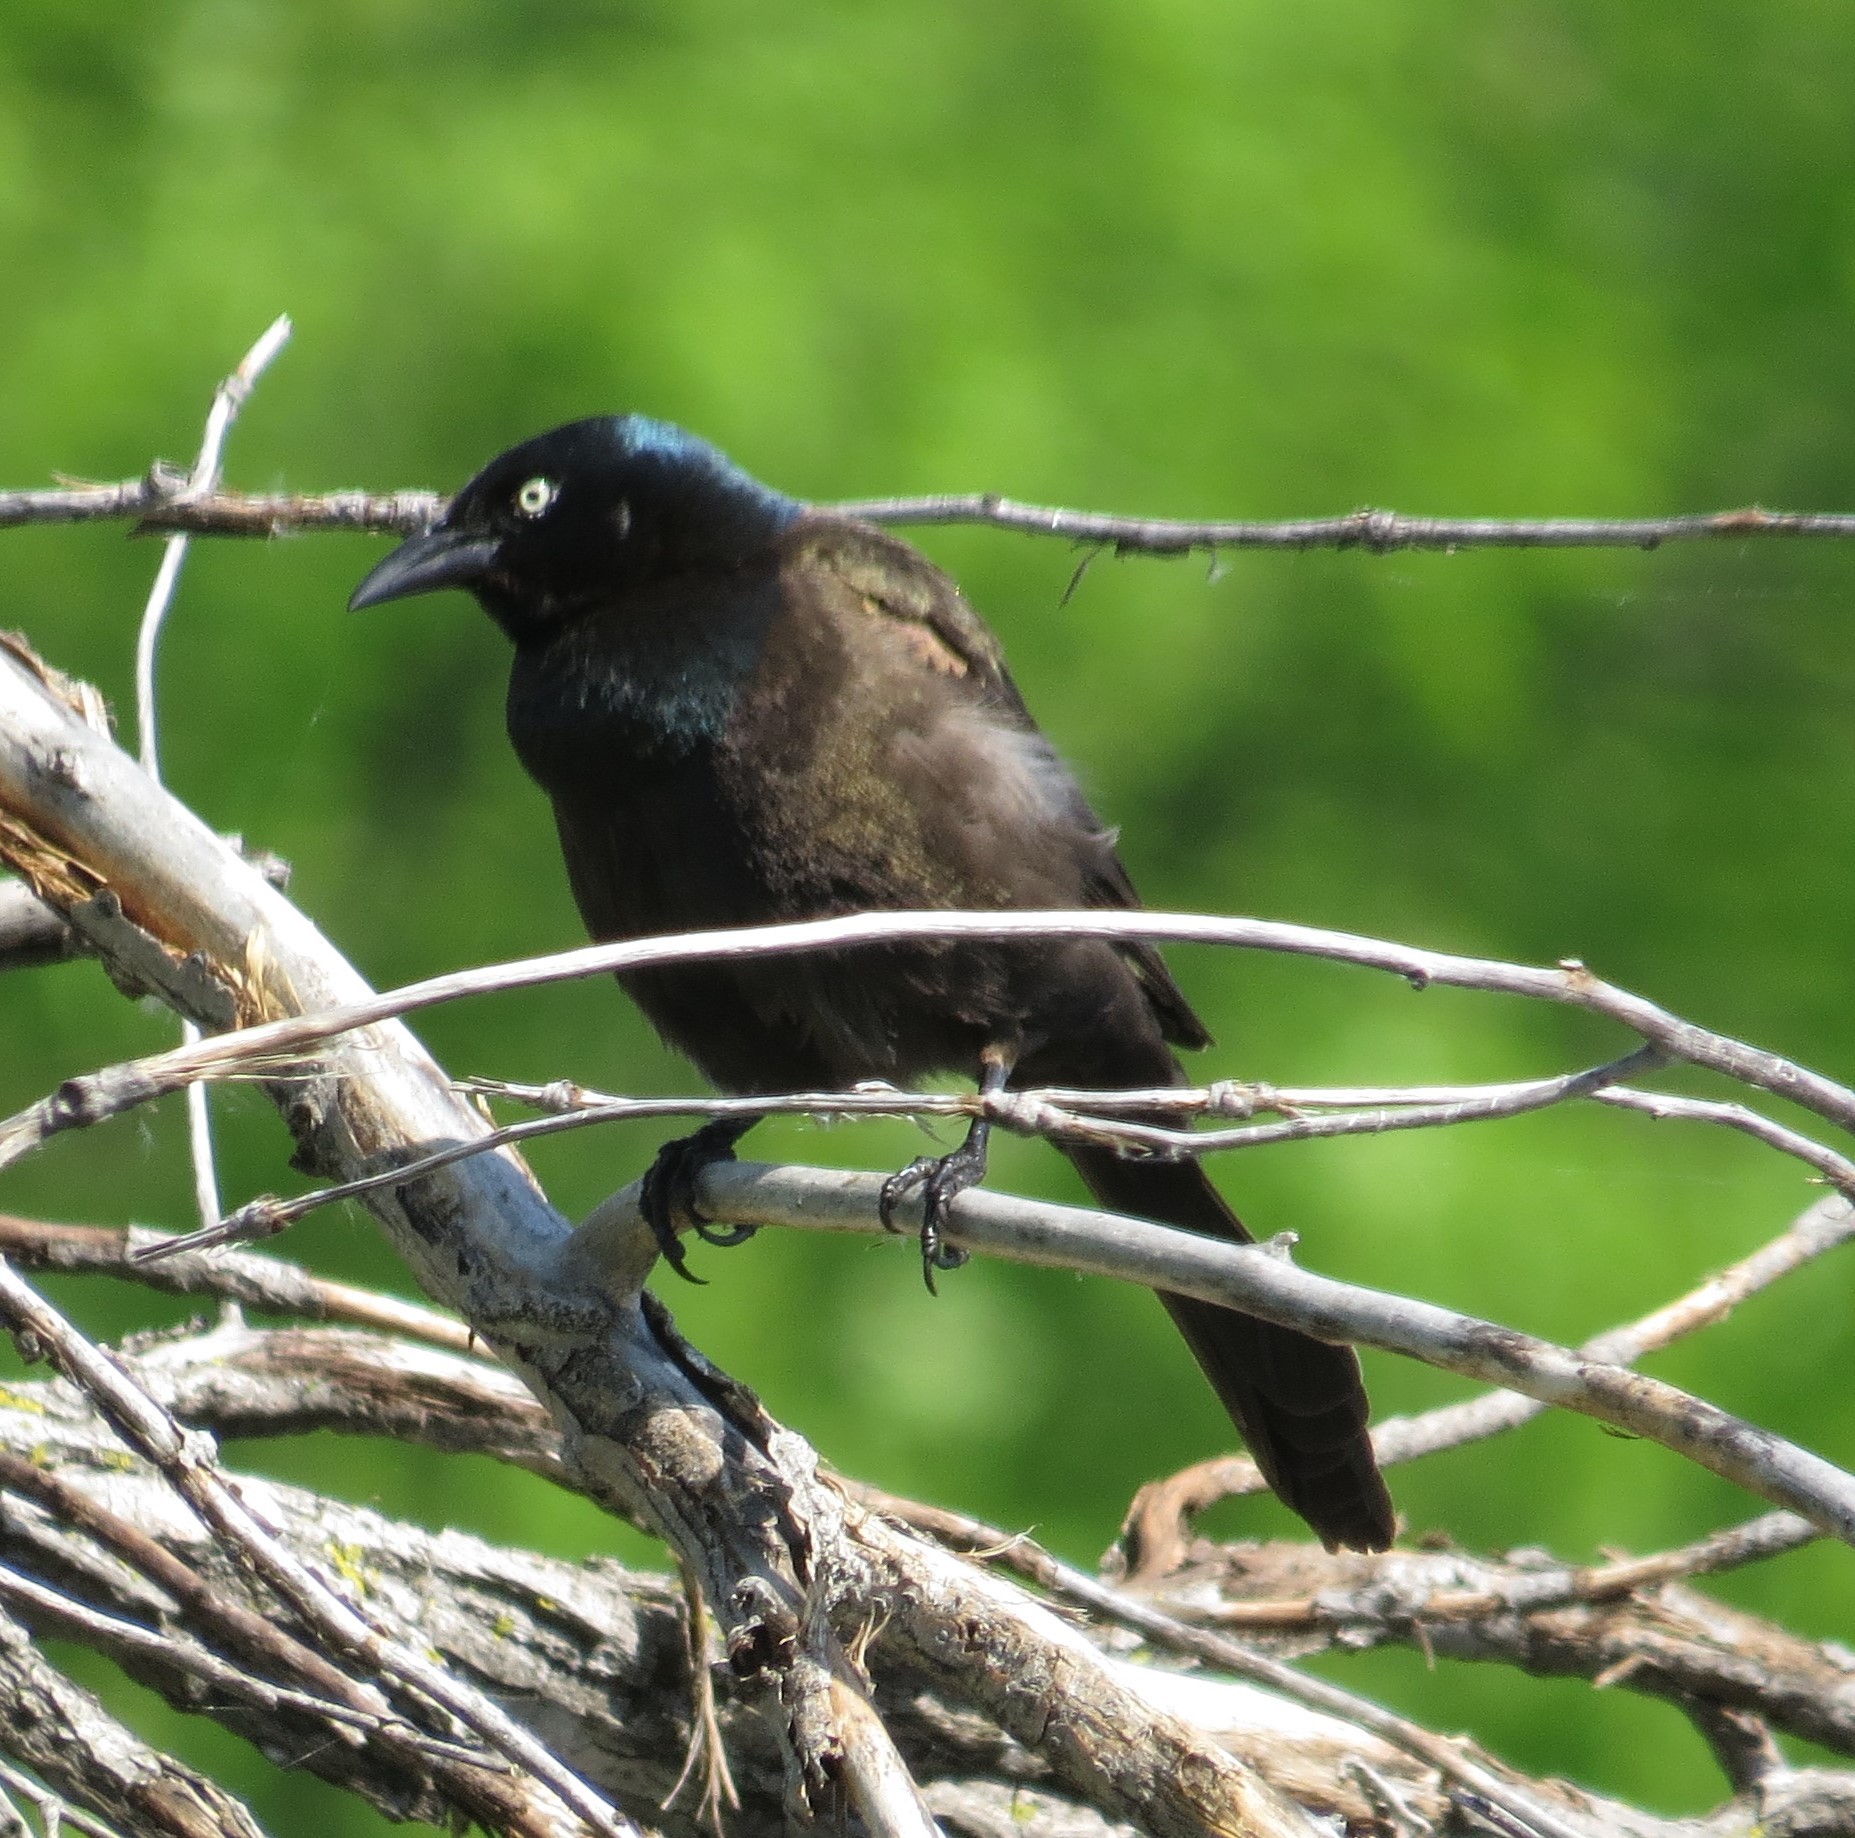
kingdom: Animalia
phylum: Chordata
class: Aves
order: Passeriformes
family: Icteridae
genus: Quiscalus
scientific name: Quiscalus quiscula
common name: Common grackle
